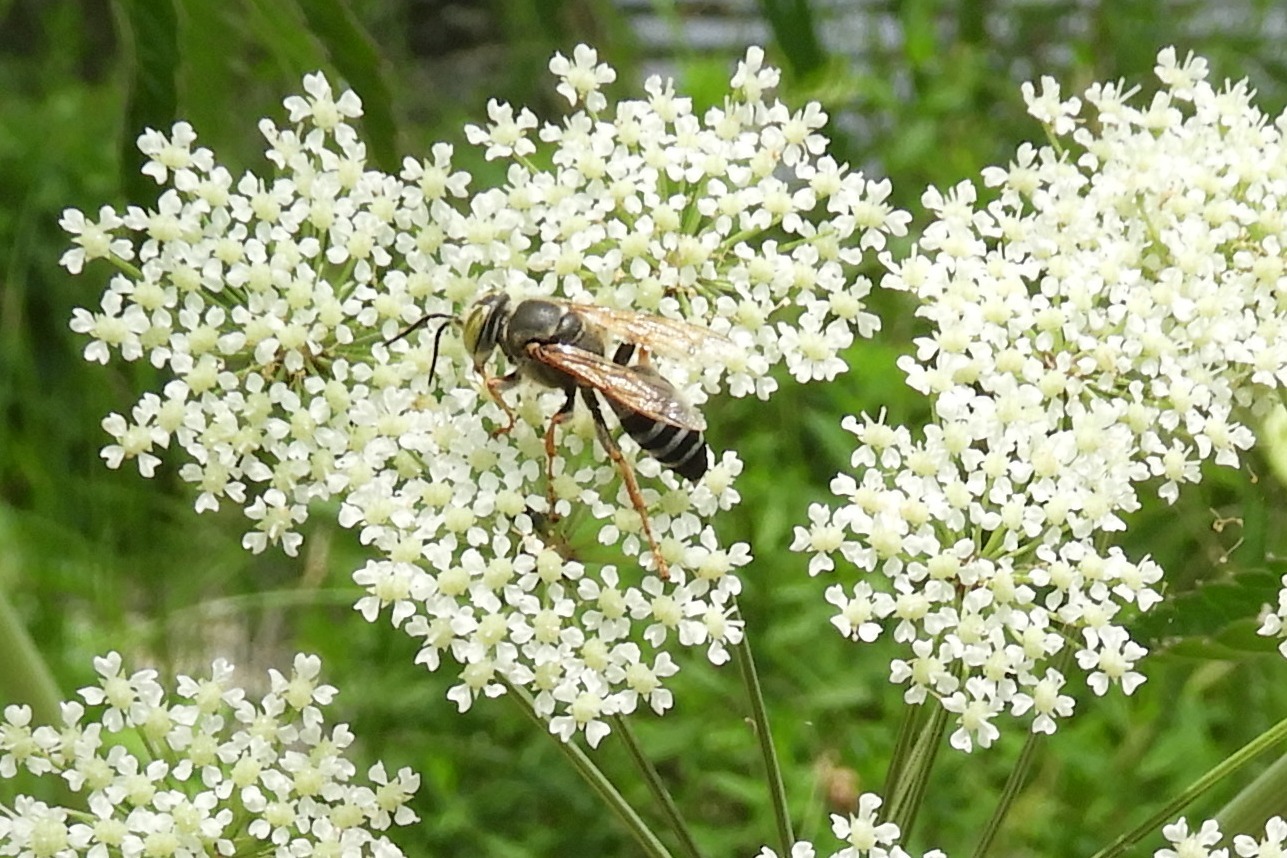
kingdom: Animalia
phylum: Arthropoda
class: Insecta
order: Hymenoptera
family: Crabronidae
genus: Tachytes
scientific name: Tachytes
